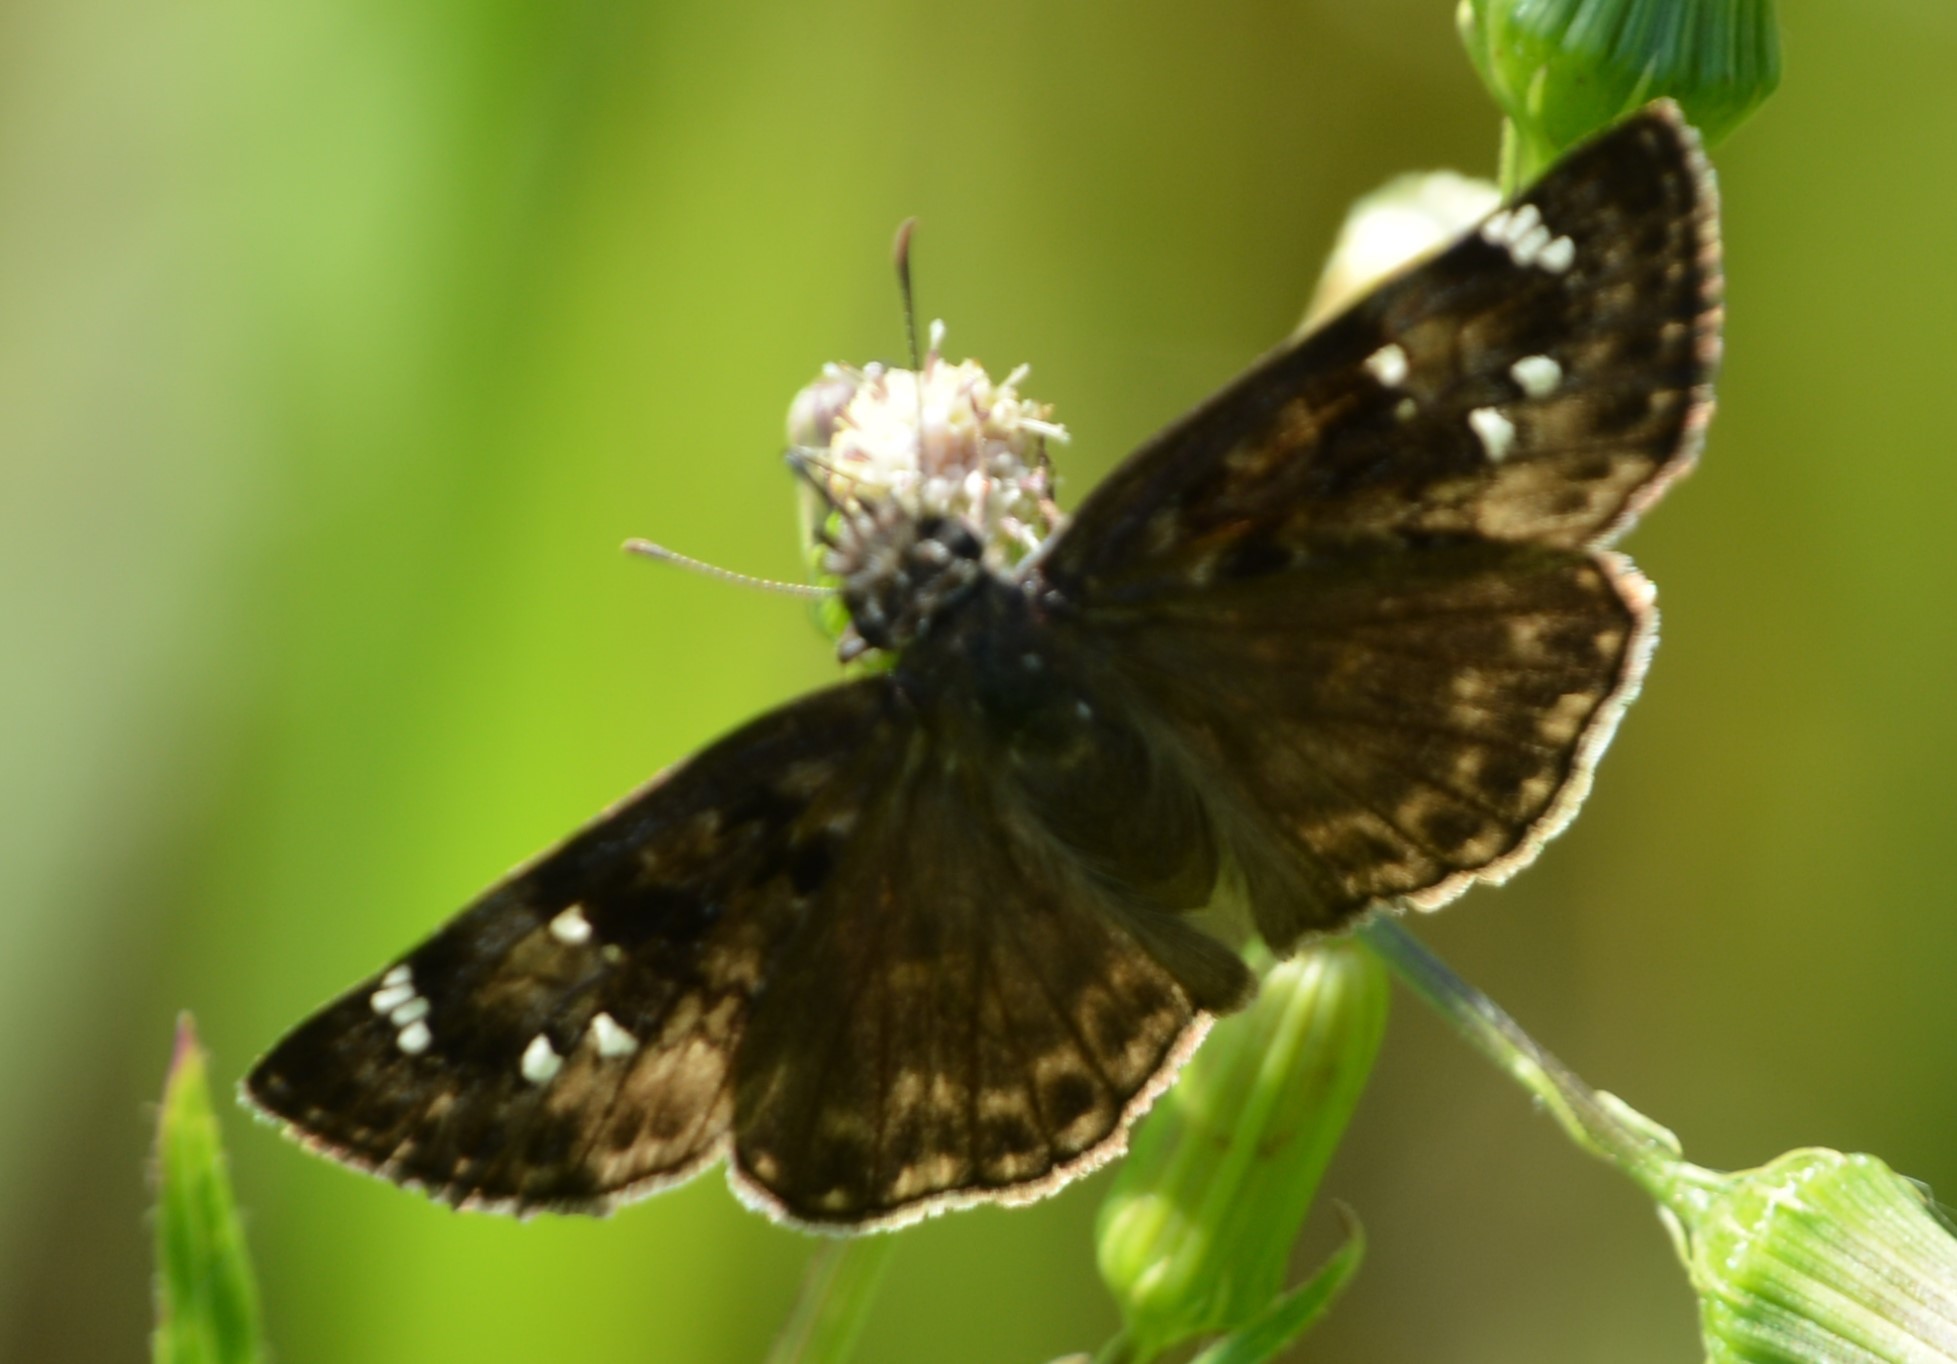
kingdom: Animalia
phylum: Arthropoda
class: Insecta
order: Lepidoptera
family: Hesperiidae
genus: Erynnis
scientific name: Erynnis horatius
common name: Horace's duskywing
